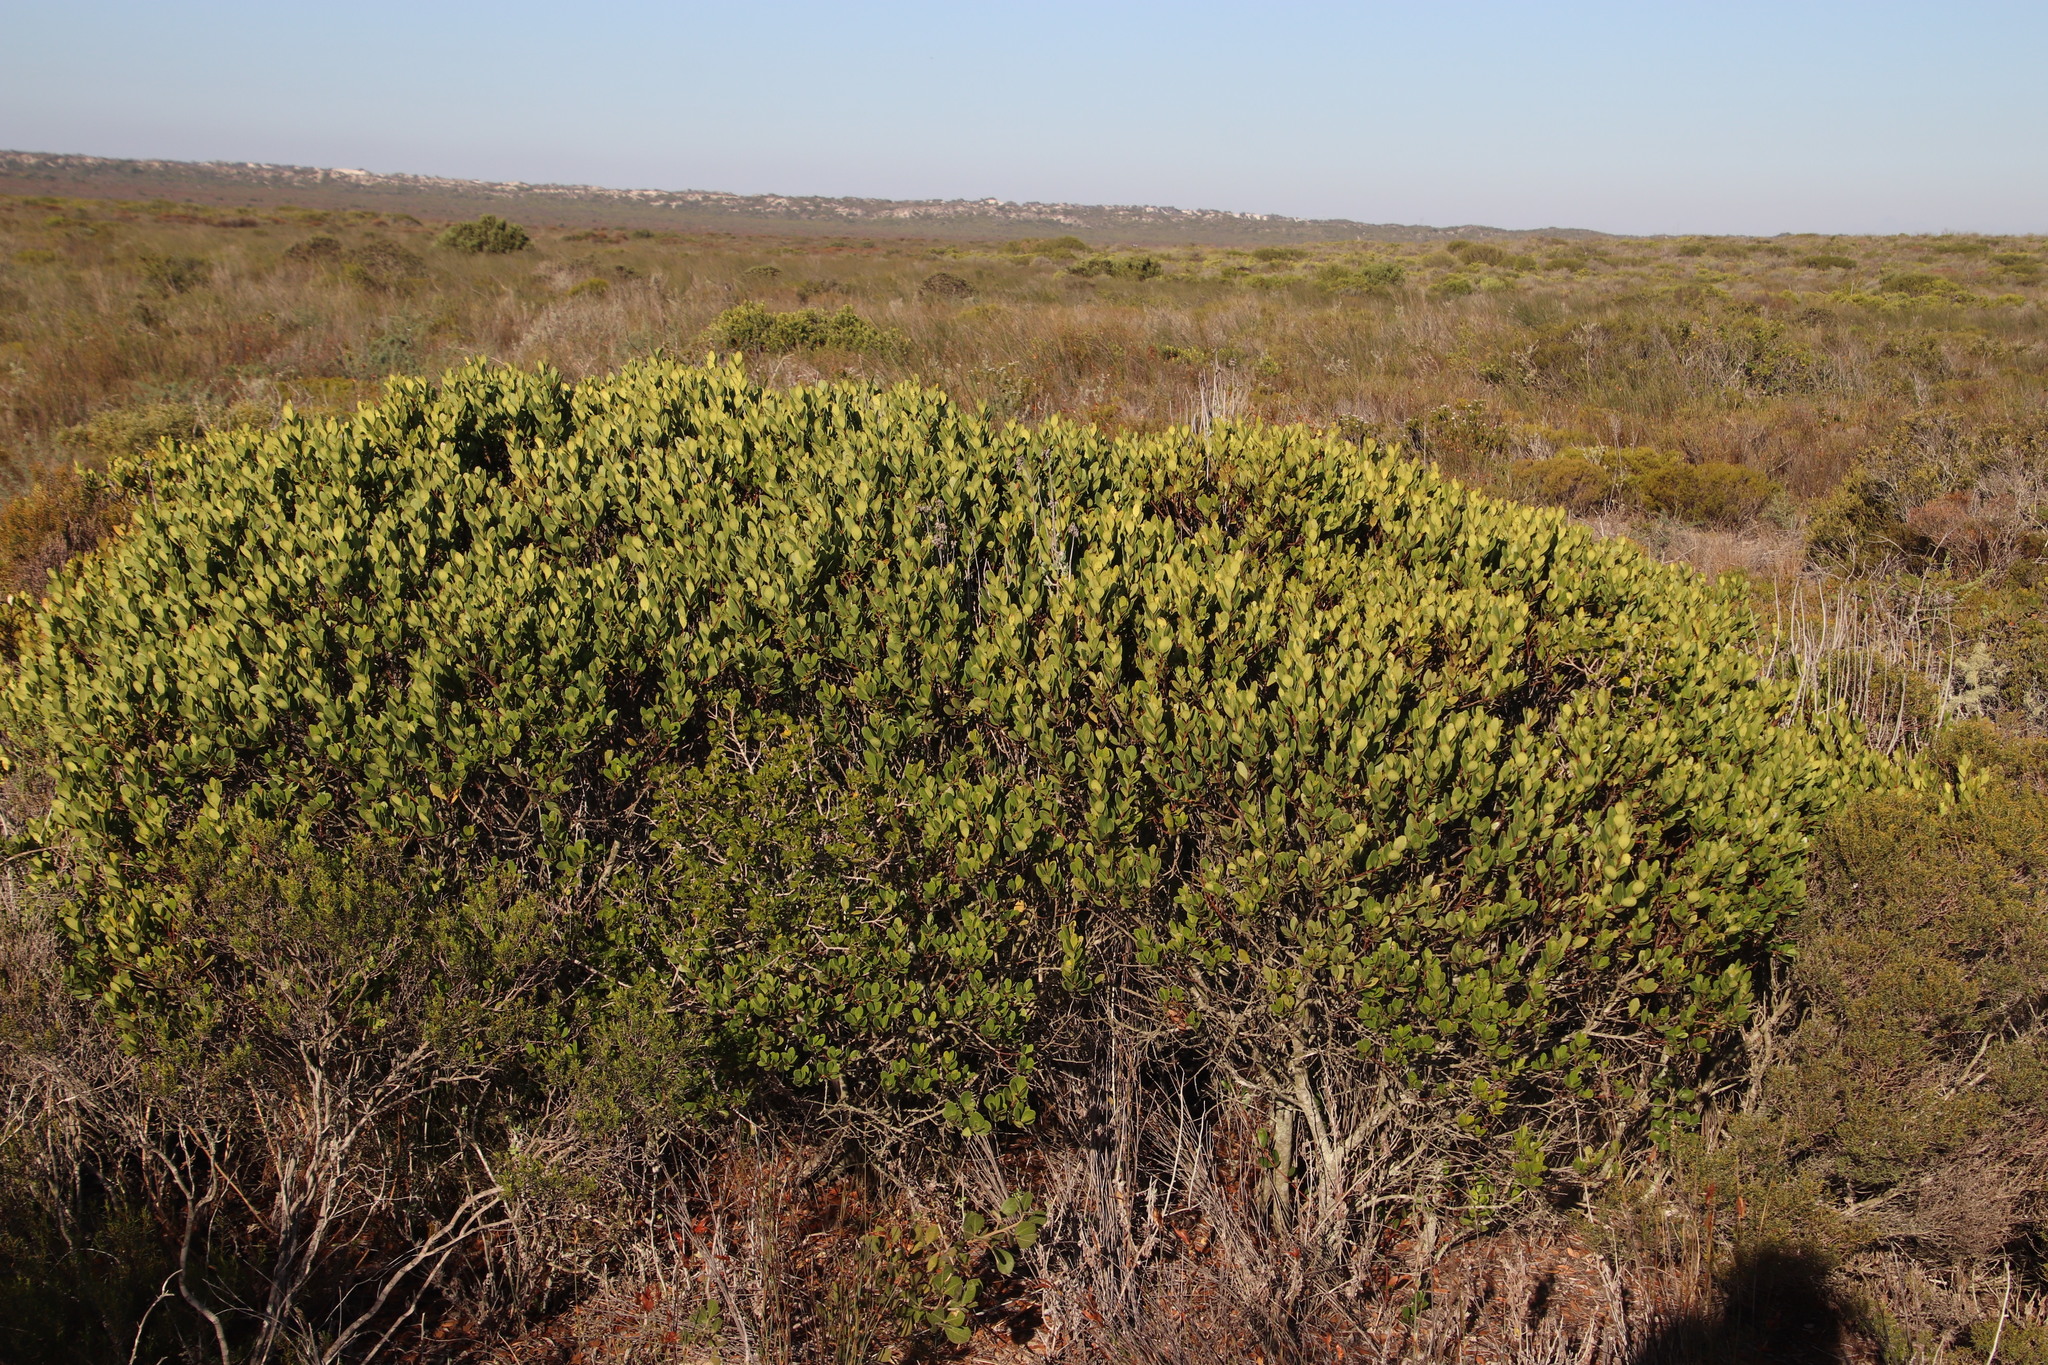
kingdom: Plantae
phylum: Tracheophyta
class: Magnoliopsida
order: Celastrales
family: Celastraceae
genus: Pterocelastrus
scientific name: Pterocelastrus tricuspidatus
